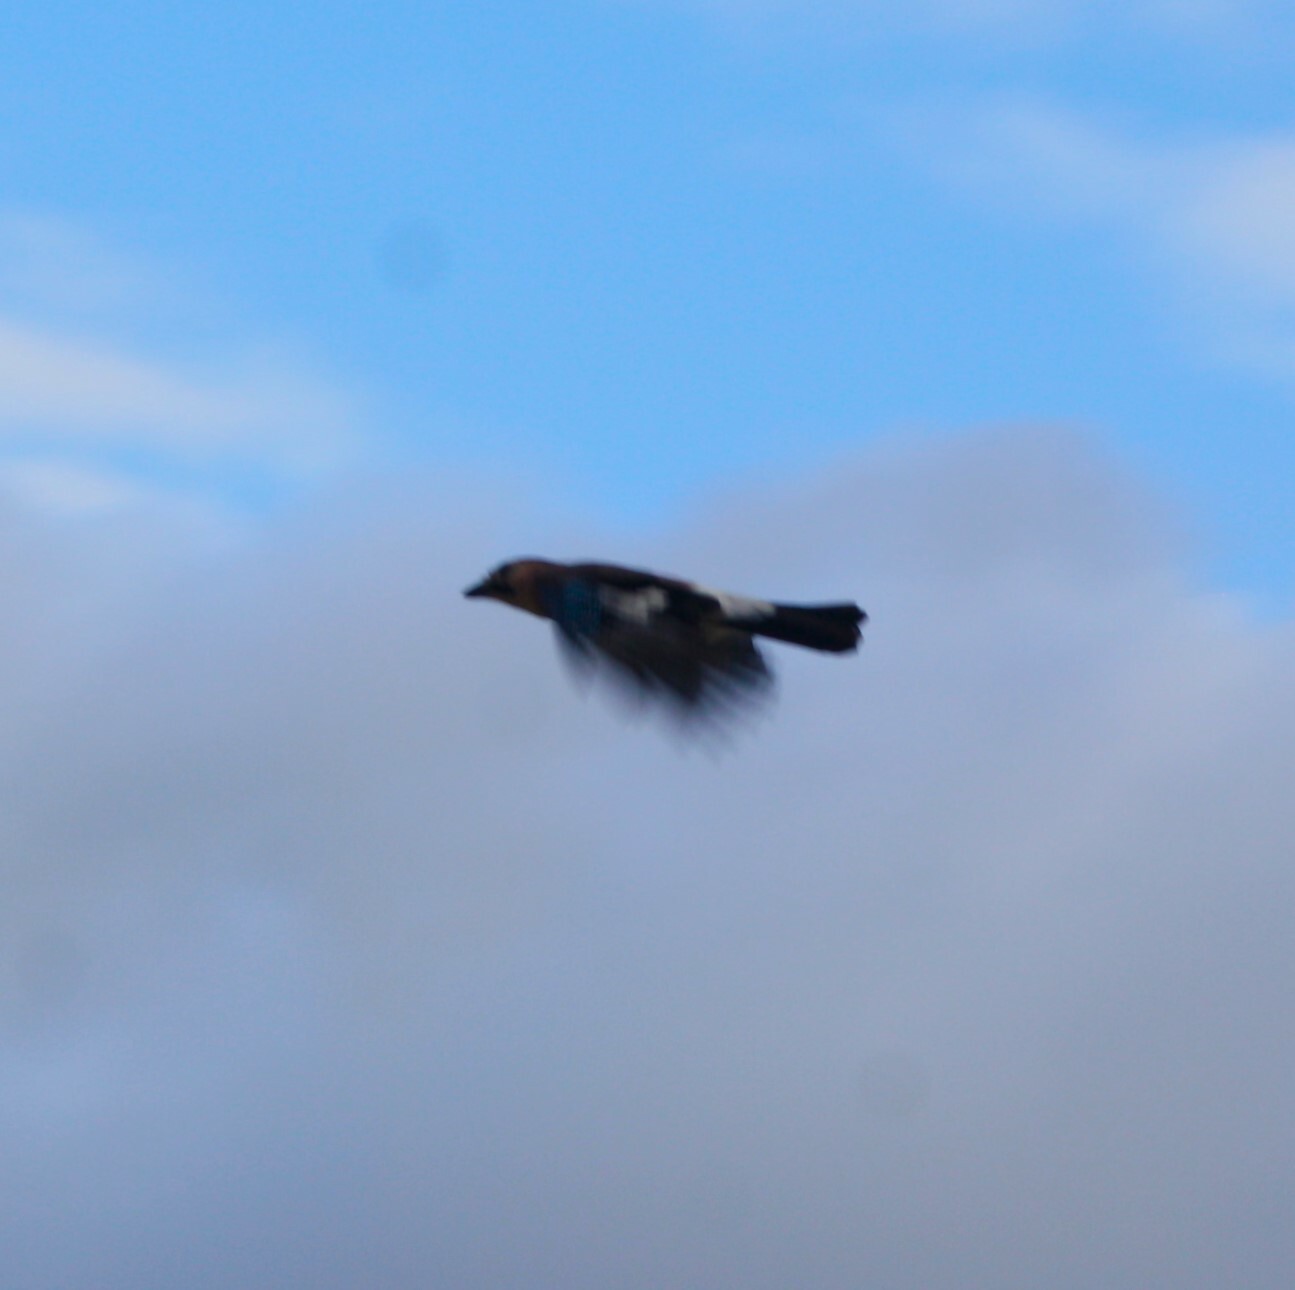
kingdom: Animalia
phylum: Chordata
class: Aves
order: Passeriformes
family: Corvidae
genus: Garrulus
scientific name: Garrulus glandarius
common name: Eurasian jay
